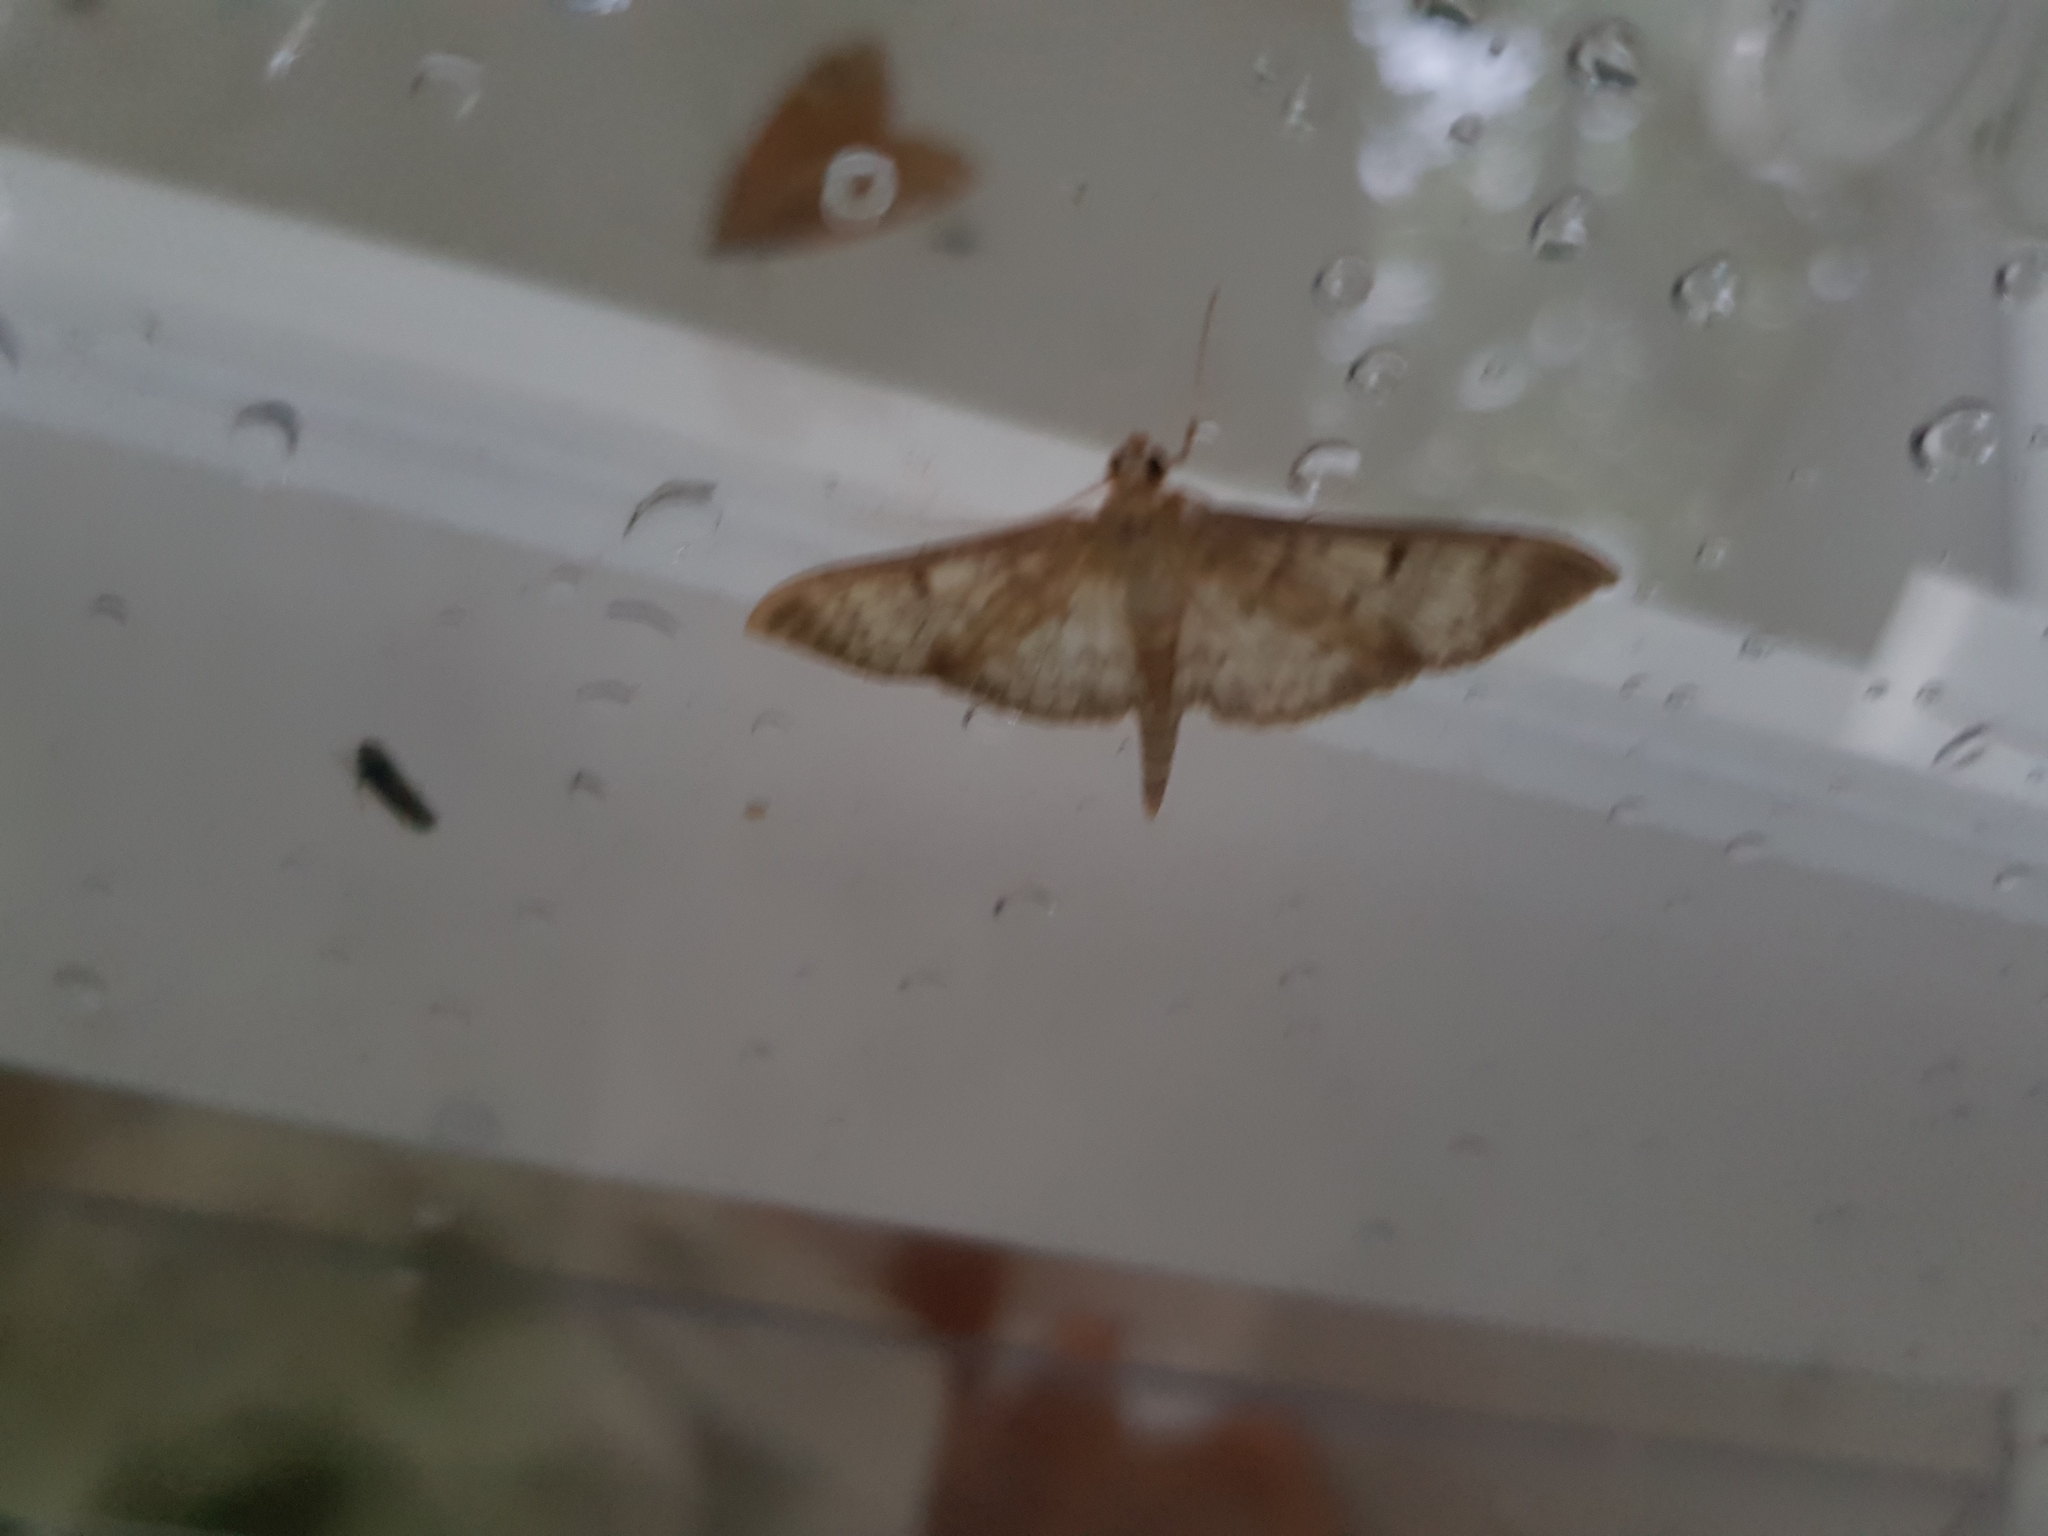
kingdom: Animalia
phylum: Arthropoda
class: Insecta
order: Lepidoptera
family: Crambidae
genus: Patania
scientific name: Patania ruralis
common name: Mother of pearl
